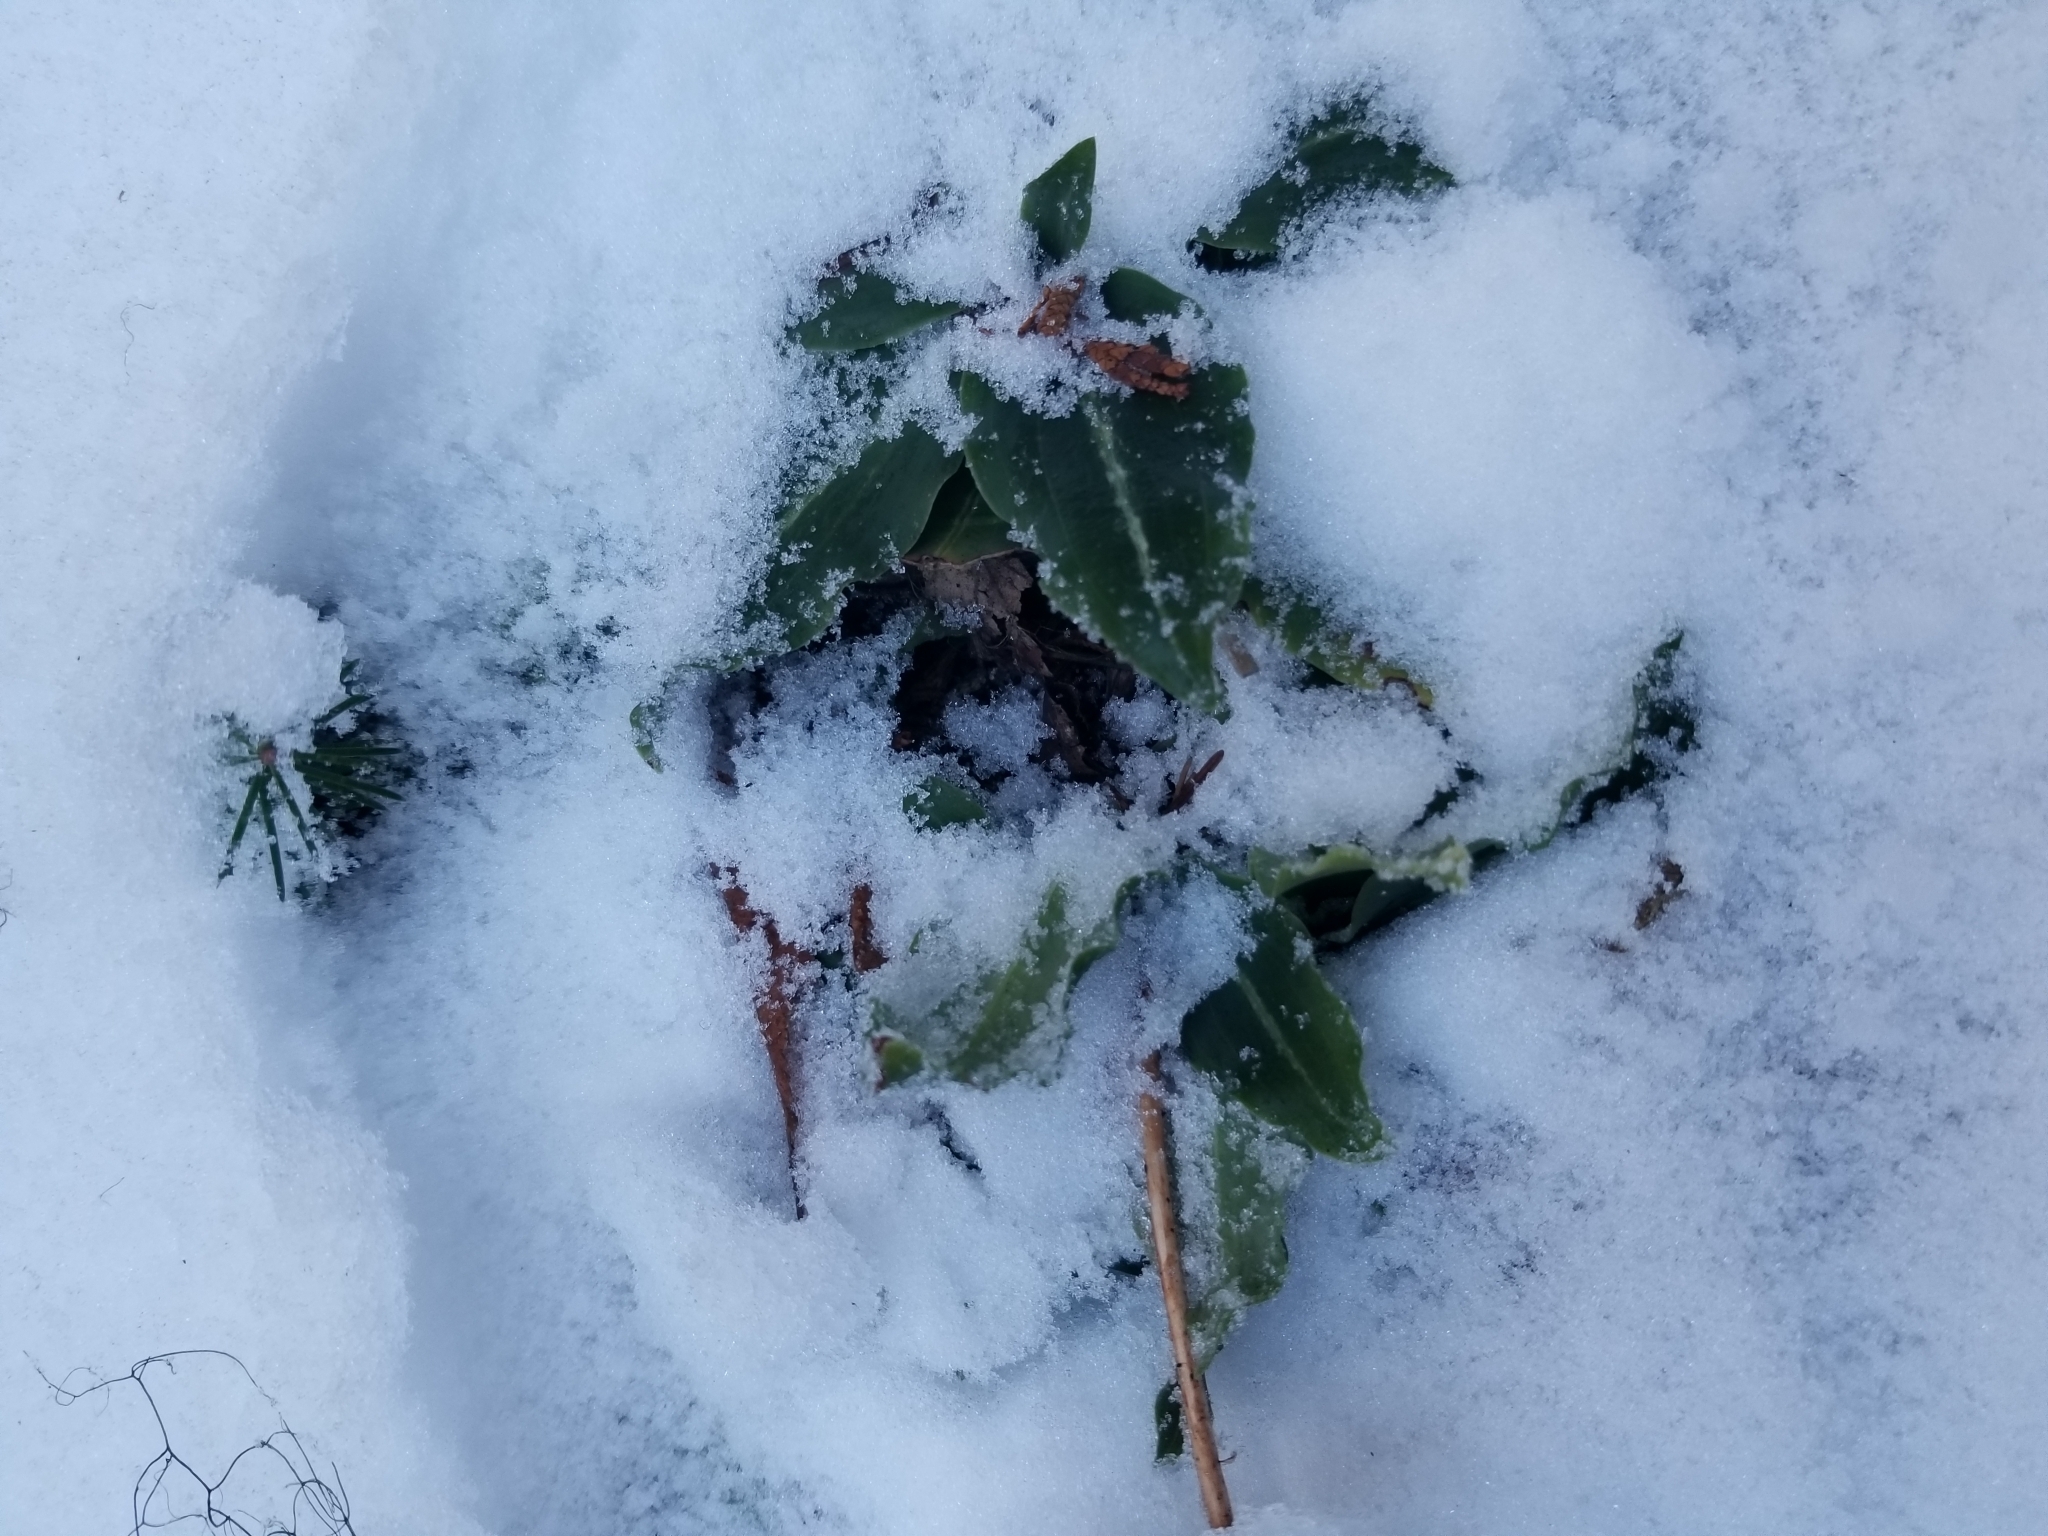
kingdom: Plantae
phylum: Tracheophyta
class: Liliopsida
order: Asparagales
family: Orchidaceae
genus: Goodyera
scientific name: Goodyera oblongifolia
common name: Giant rattlesnake-plantain
